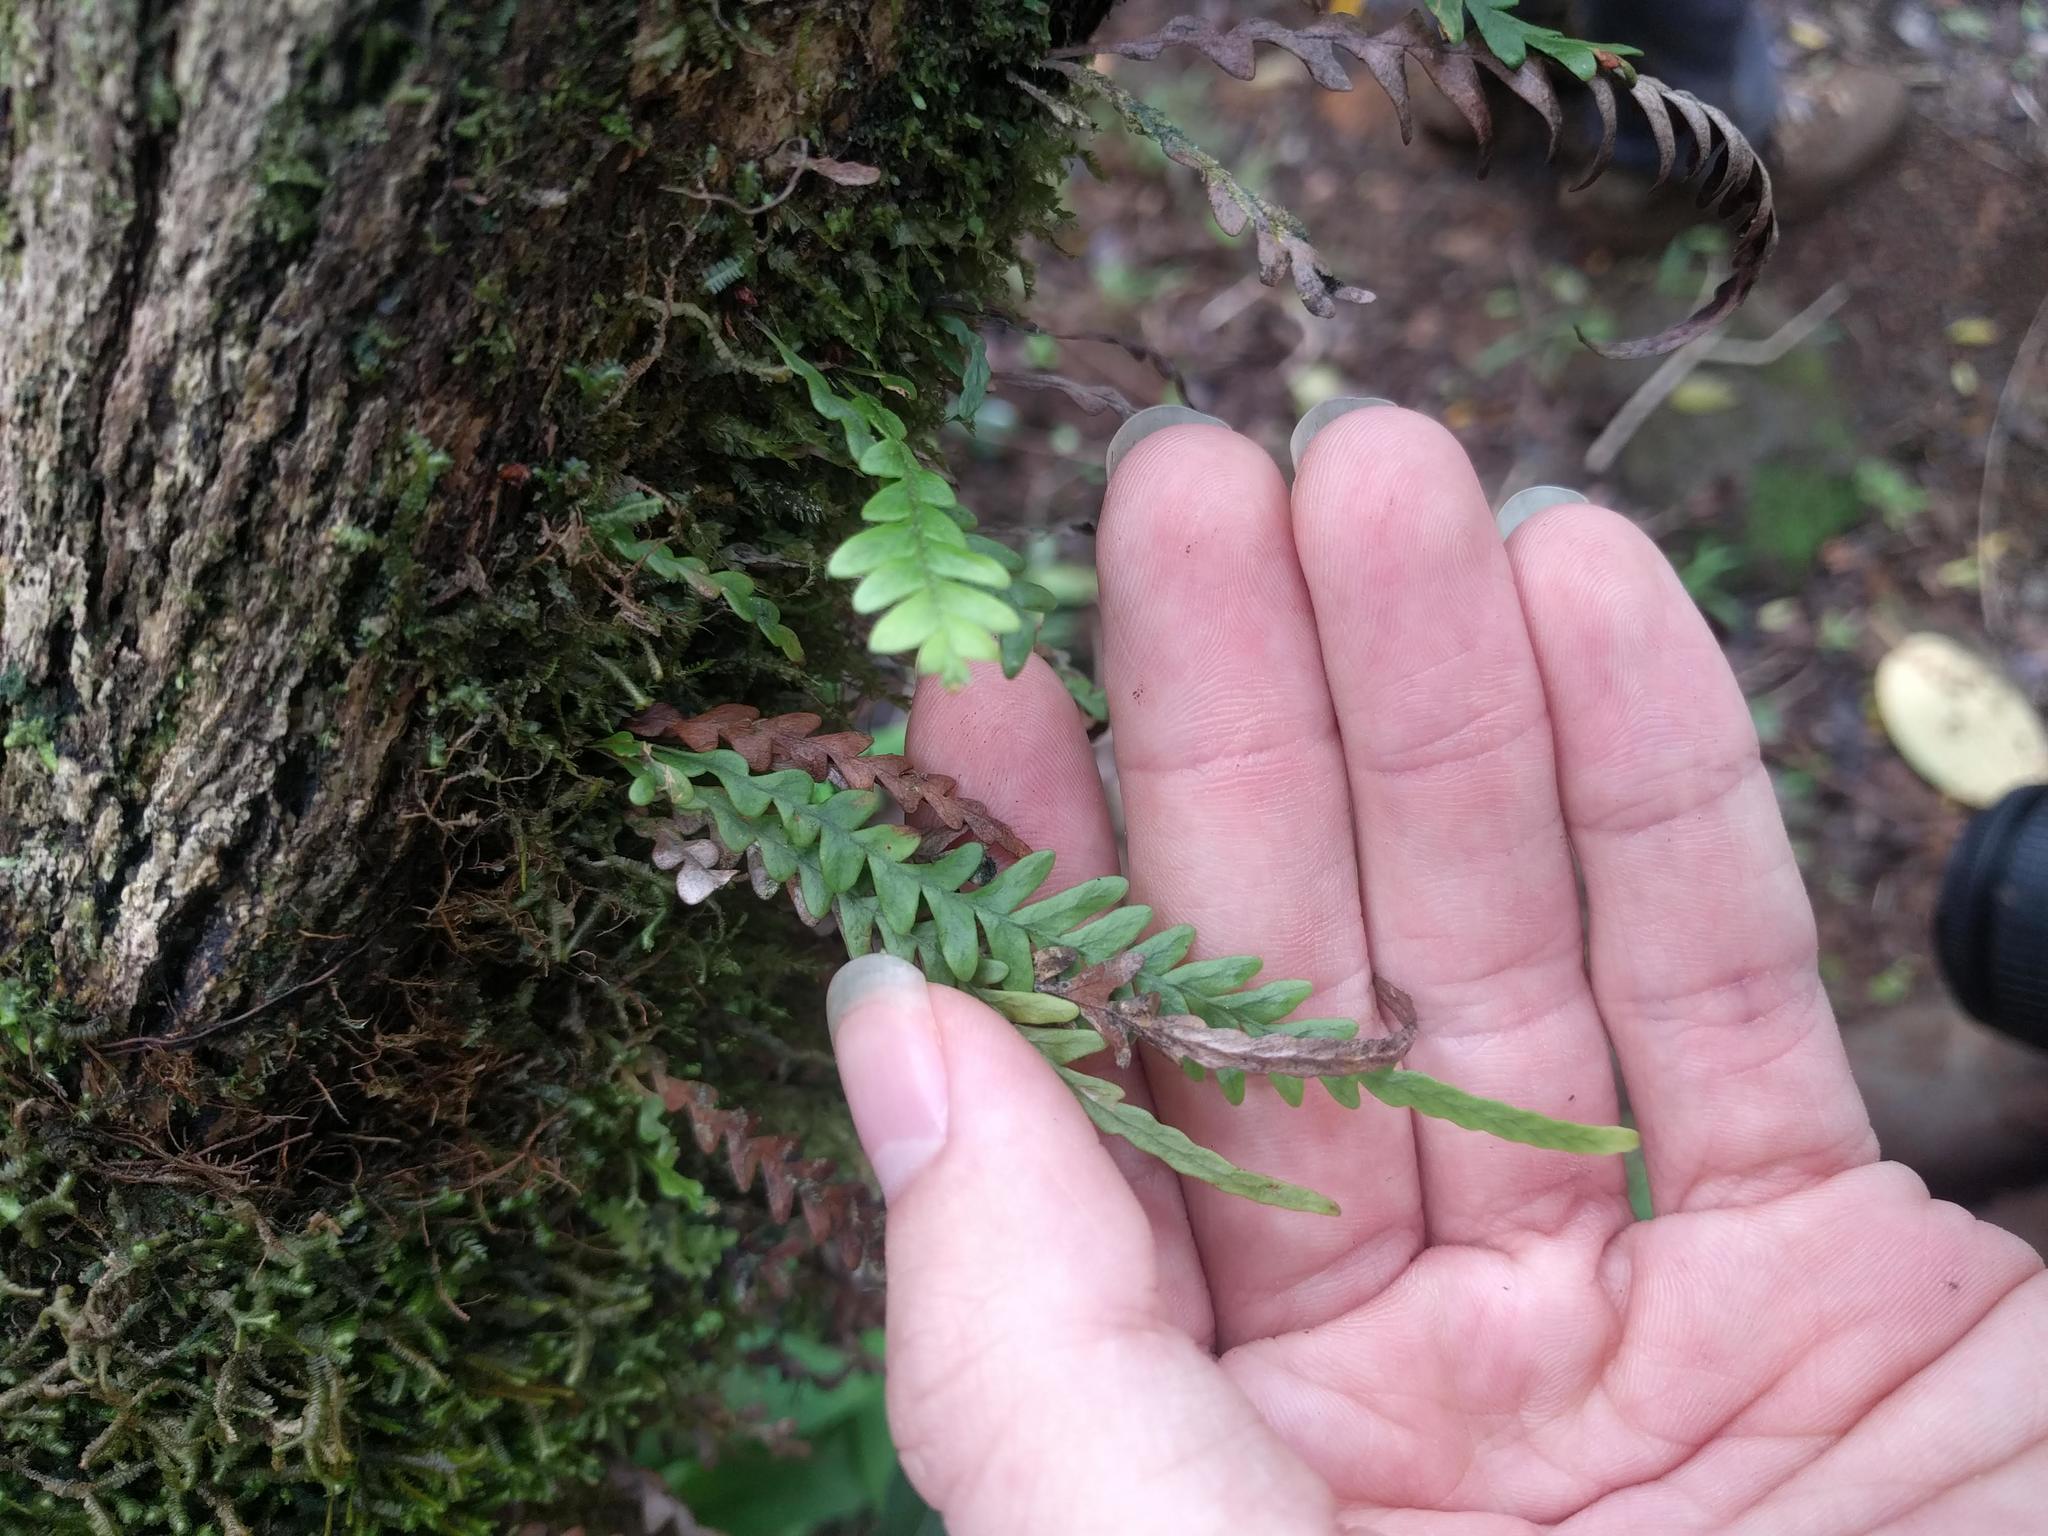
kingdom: Plantae
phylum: Tracheophyta
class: Polypodiopsida
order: Polypodiales
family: Polypodiaceae
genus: Adenophorus
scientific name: Adenophorus pinnatifidus
